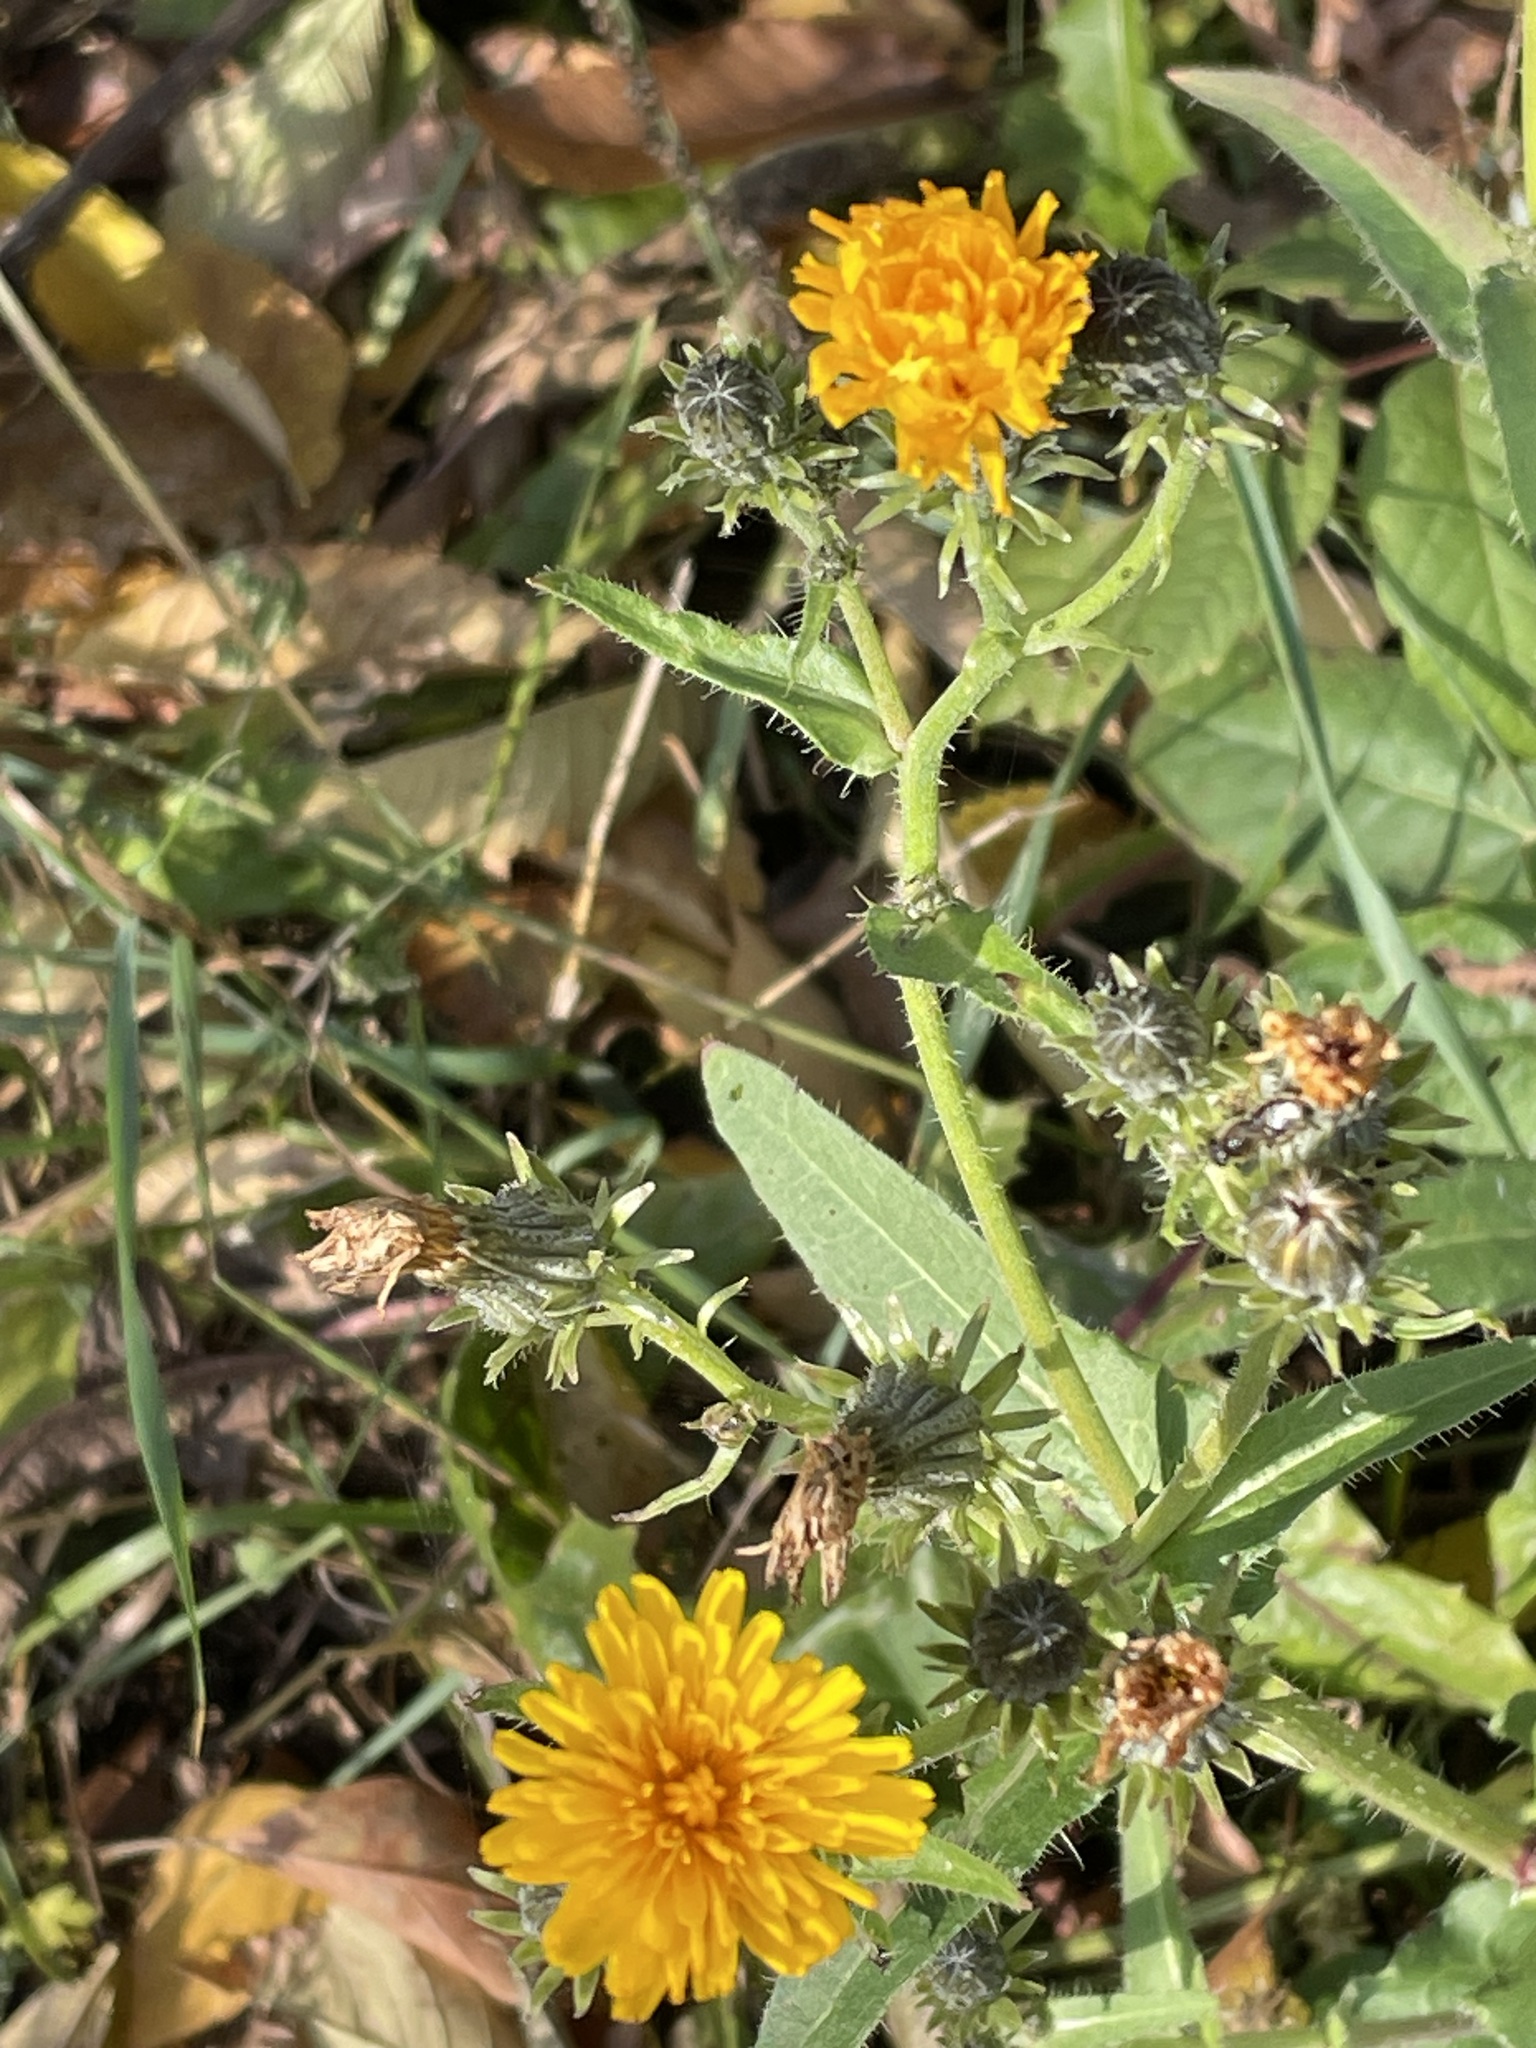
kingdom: Plantae
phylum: Tracheophyta
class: Magnoliopsida
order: Asterales
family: Asteraceae
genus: Picris
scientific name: Picris hieracioides
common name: Hawkweed oxtongue
